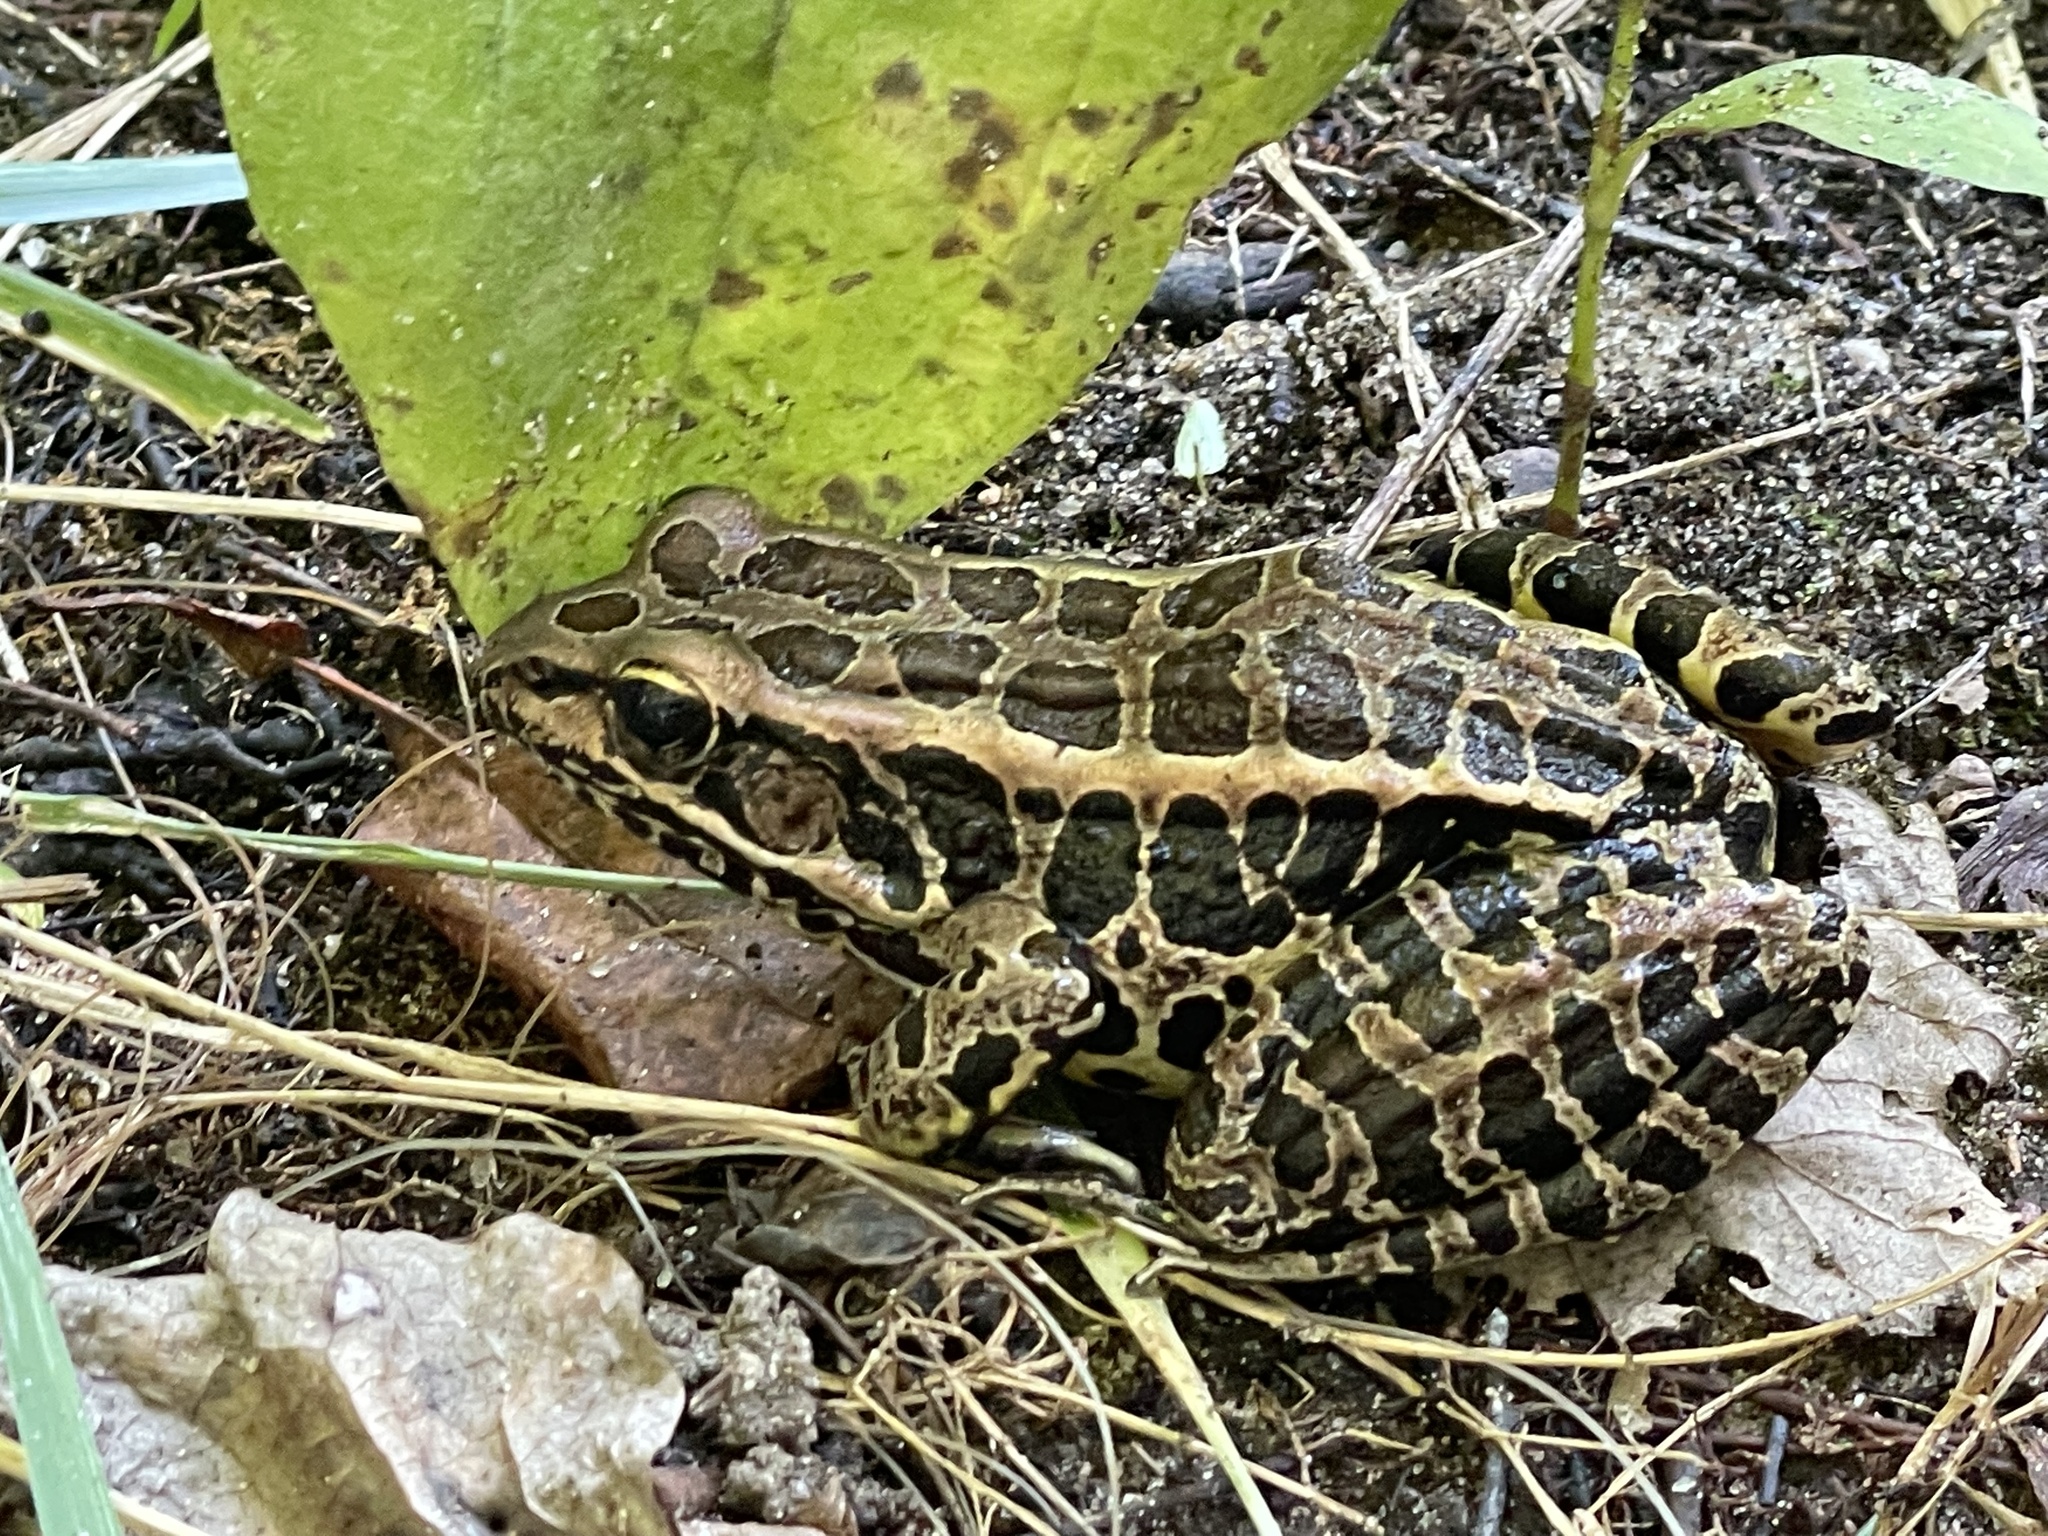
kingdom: Animalia
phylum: Chordata
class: Amphibia
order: Anura
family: Ranidae
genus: Lithobates
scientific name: Lithobates palustris
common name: Pickerel frog
